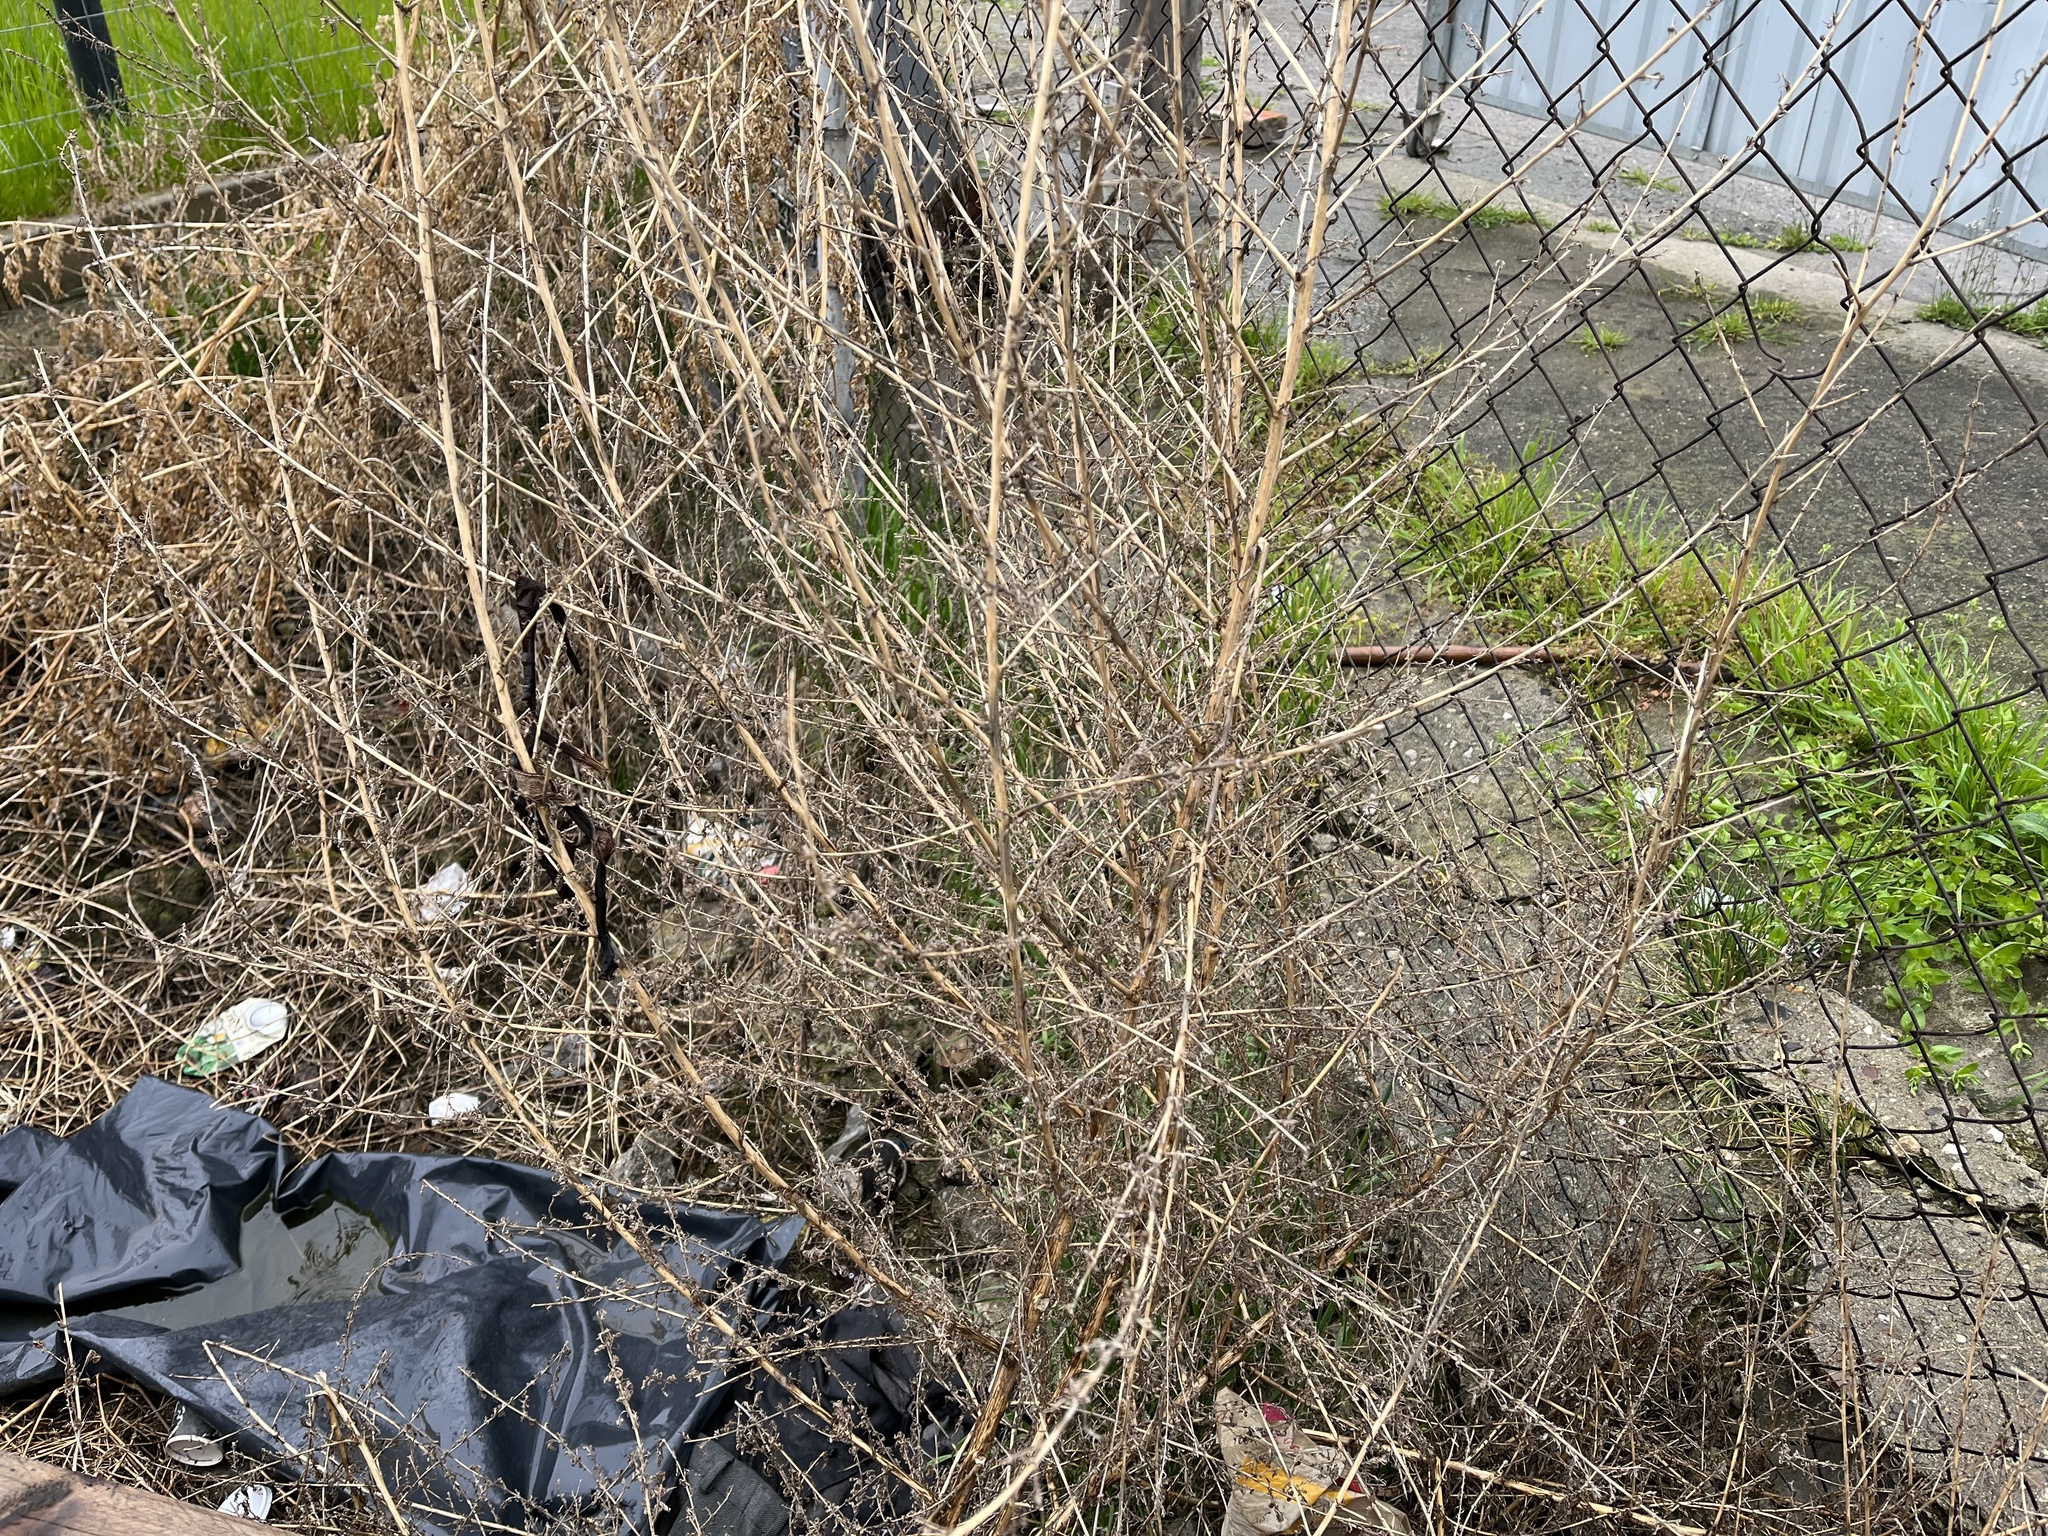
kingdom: Plantae
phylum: Tracheophyta
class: Magnoliopsida
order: Caryophyllales
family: Amaranthaceae
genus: Bassia
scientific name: Bassia scoparia
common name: Belvedere
